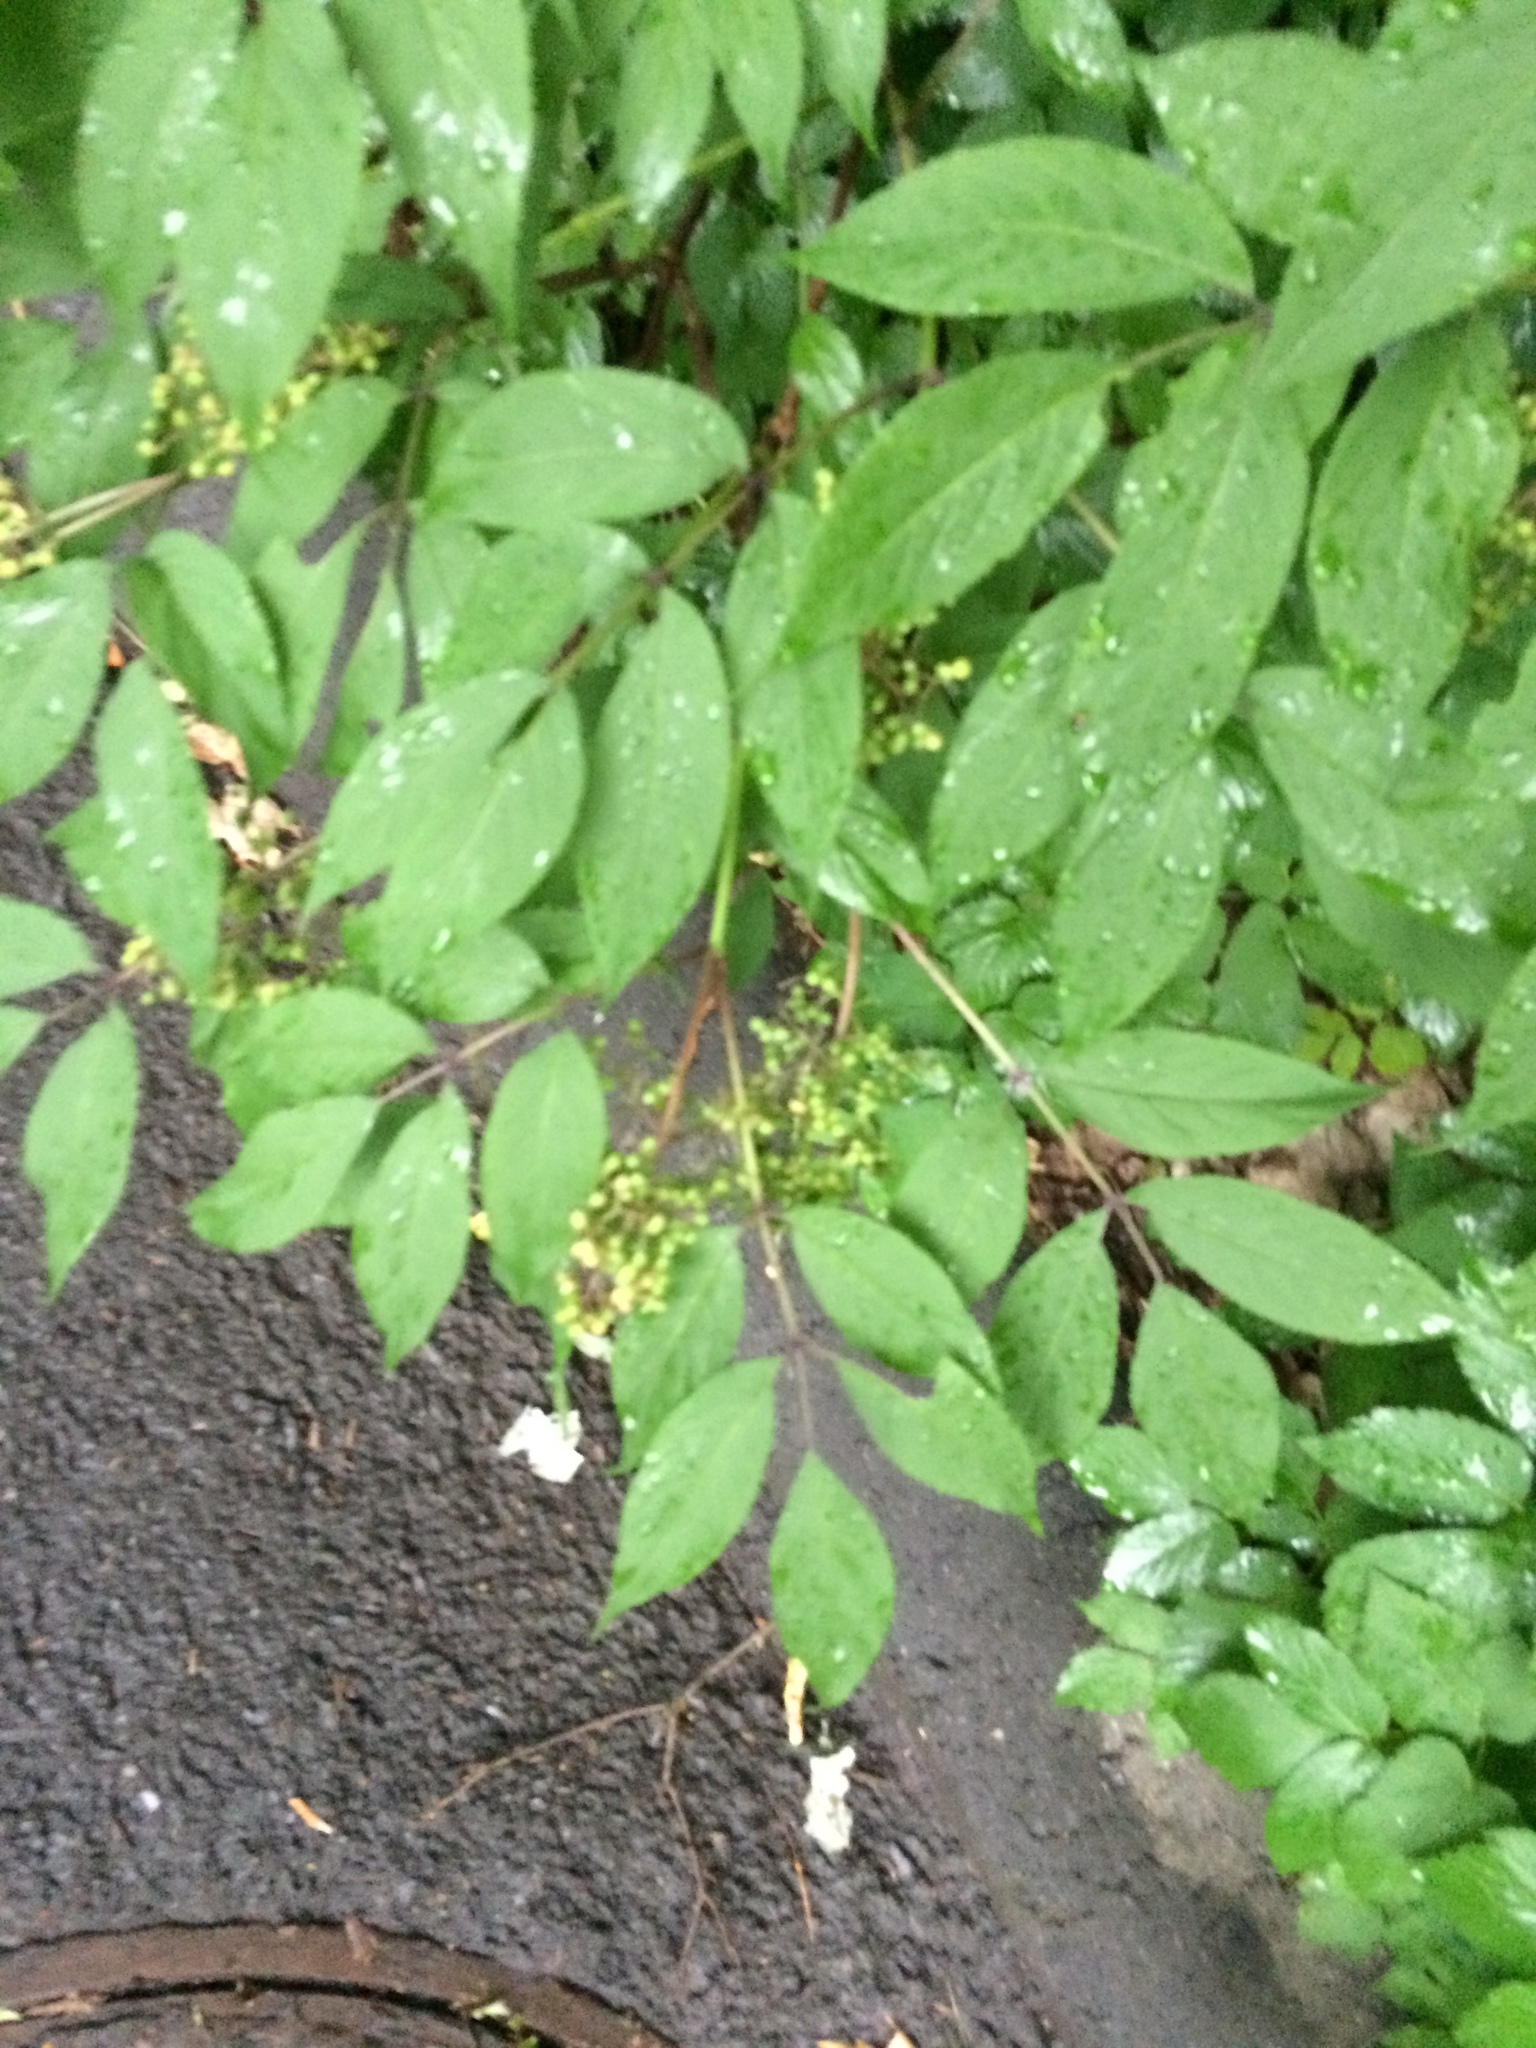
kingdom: Plantae
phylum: Tracheophyta
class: Magnoliopsida
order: Dipsacales
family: Viburnaceae
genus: Sambucus
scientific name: Sambucus racemosa
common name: Red-berried elder
